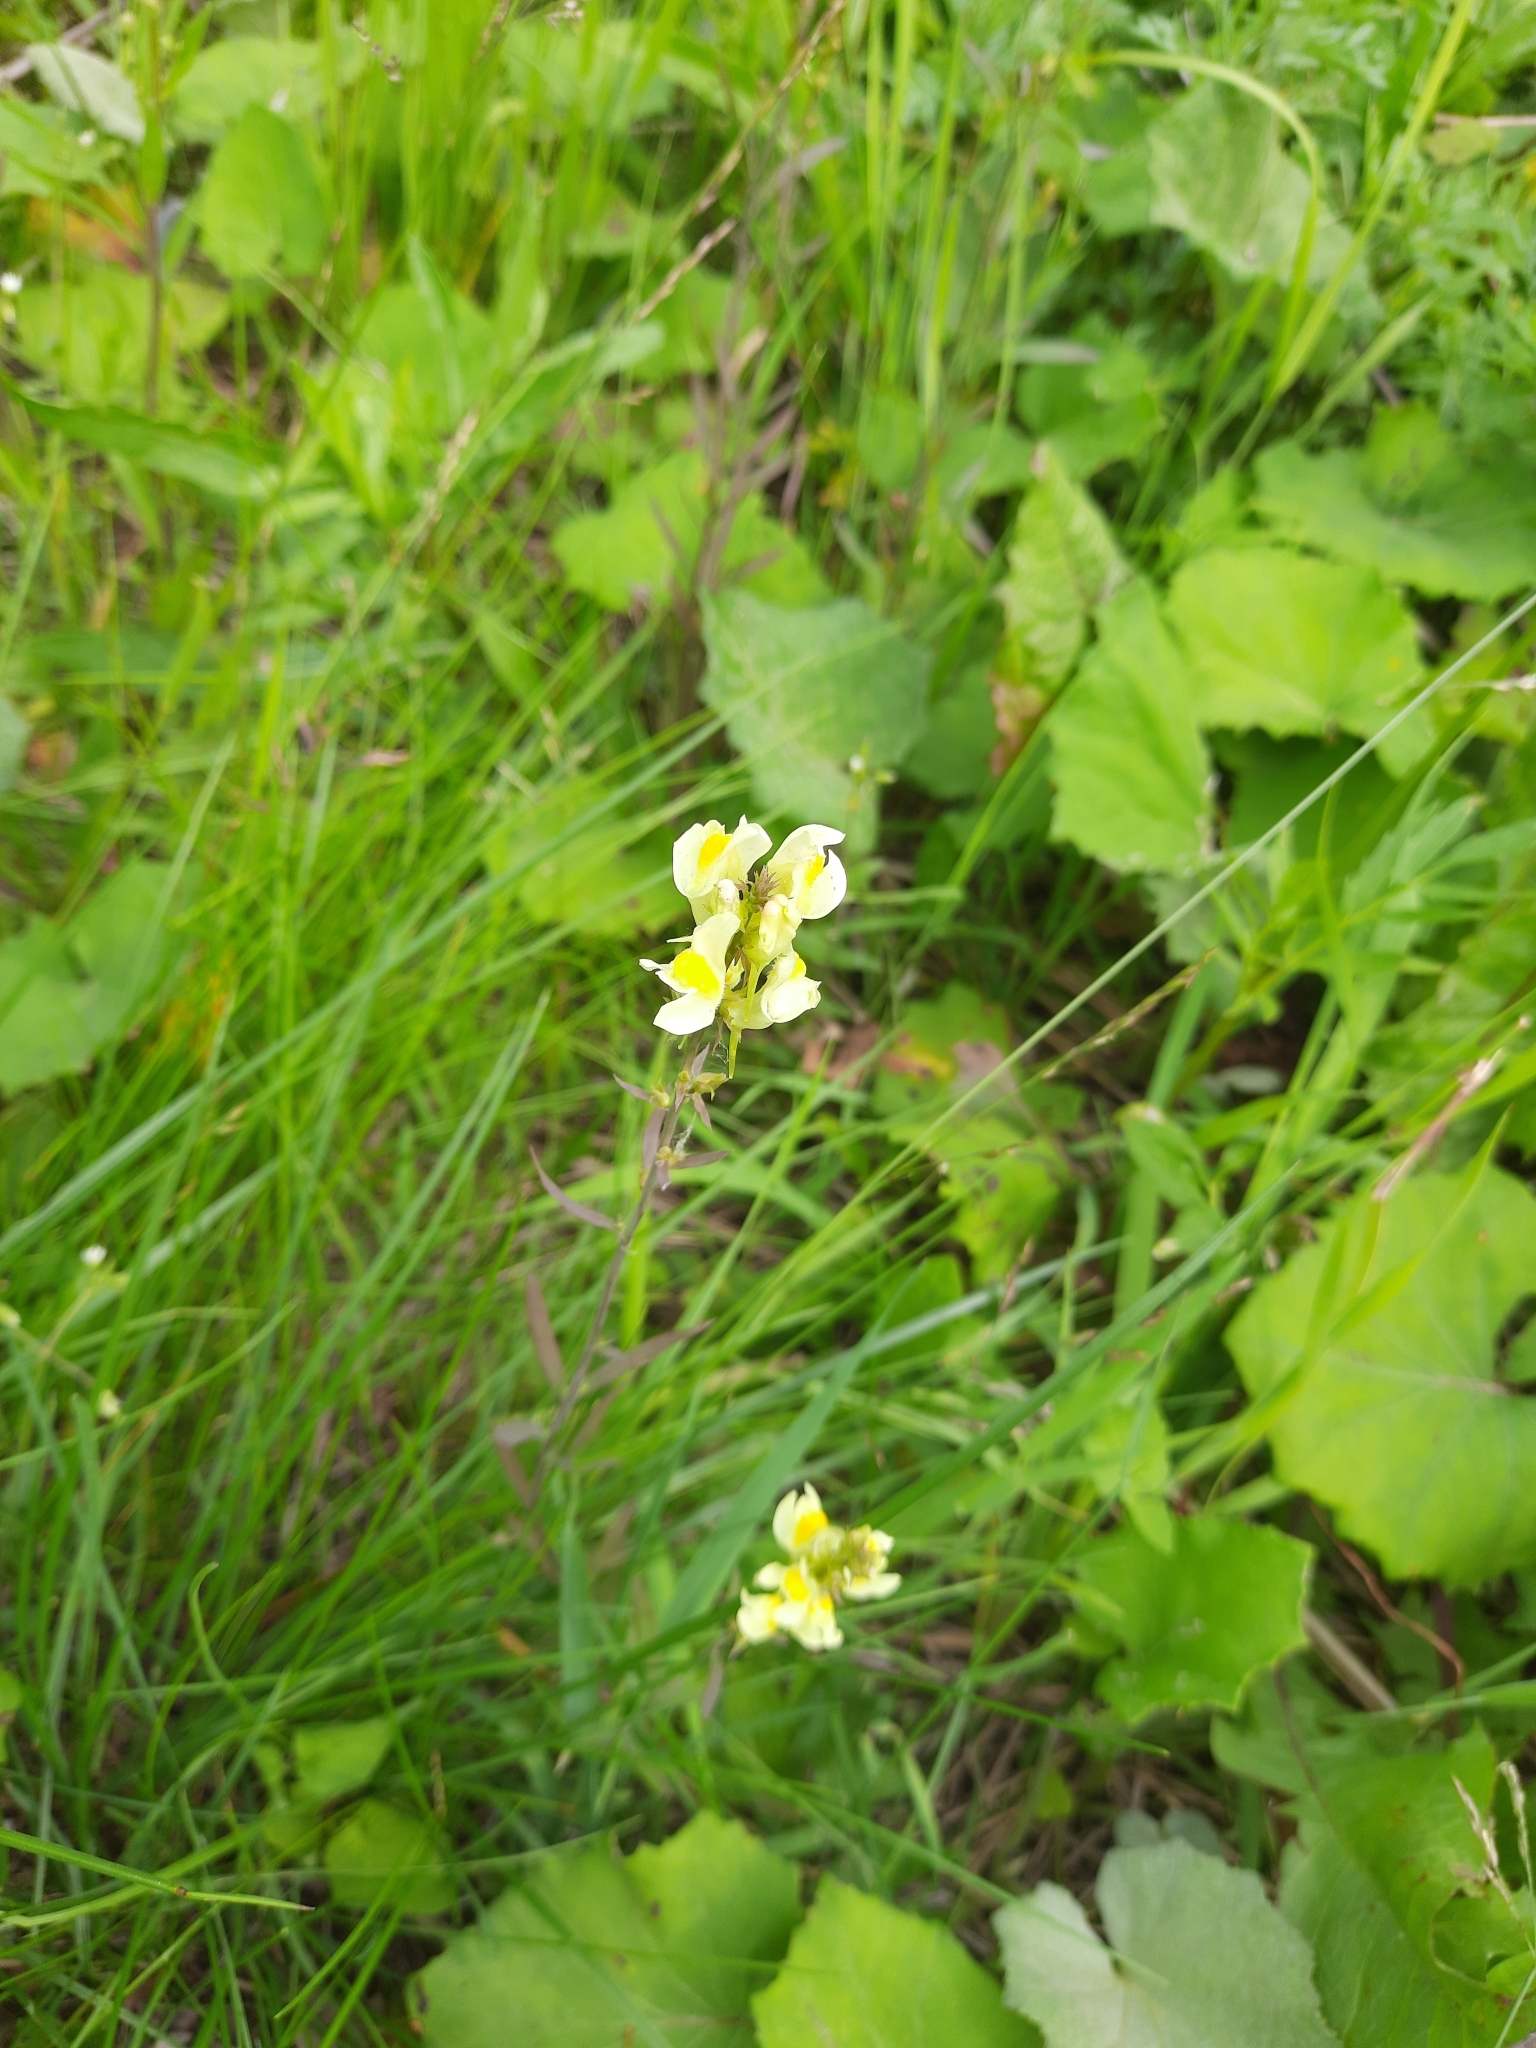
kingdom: Plantae
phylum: Tracheophyta
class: Magnoliopsida
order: Lamiales
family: Plantaginaceae
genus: Linaria
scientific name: Linaria vulgaris
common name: Butter and eggs
